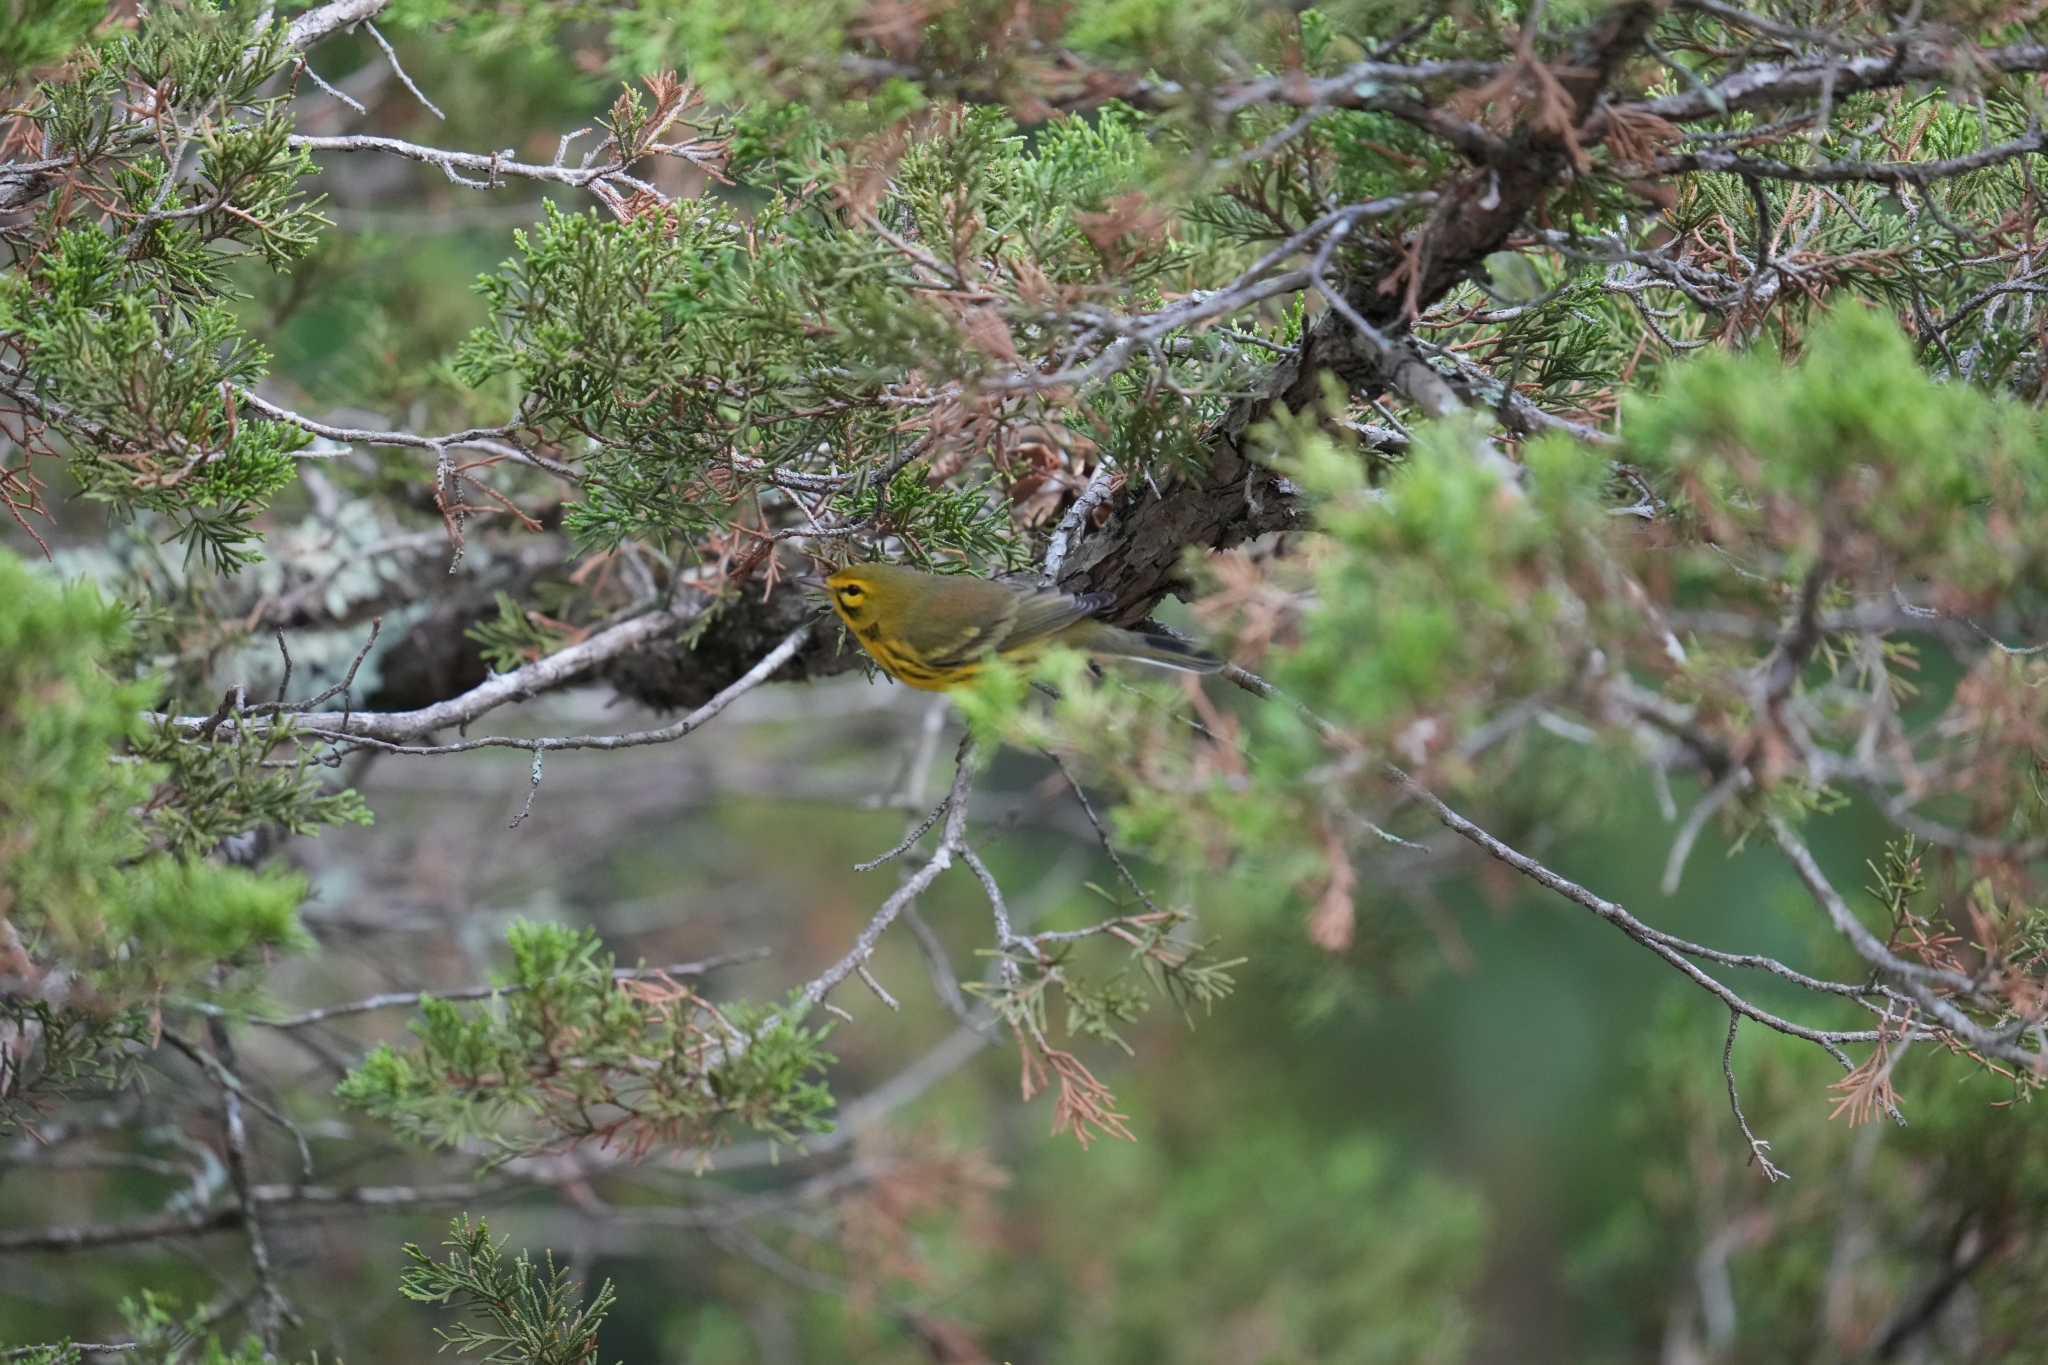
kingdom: Animalia
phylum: Chordata
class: Aves
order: Passeriformes
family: Parulidae
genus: Setophaga
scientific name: Setophaga discolor
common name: Prairie warbler
